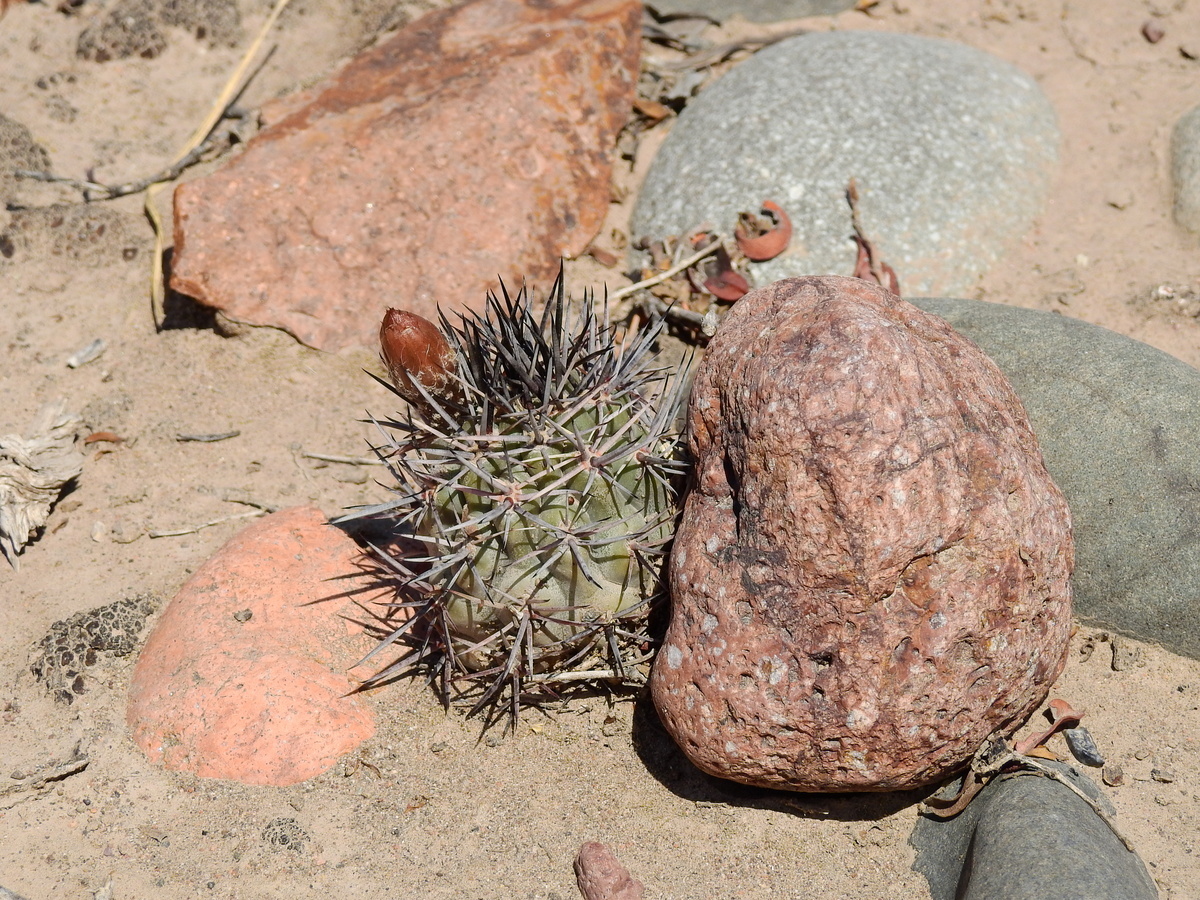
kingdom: Plantae
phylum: Tracheophyta
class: Magnoliopsida
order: Caryophyllales
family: Cactaceae
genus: Eriosyce
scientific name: Eriosyce strausiana
